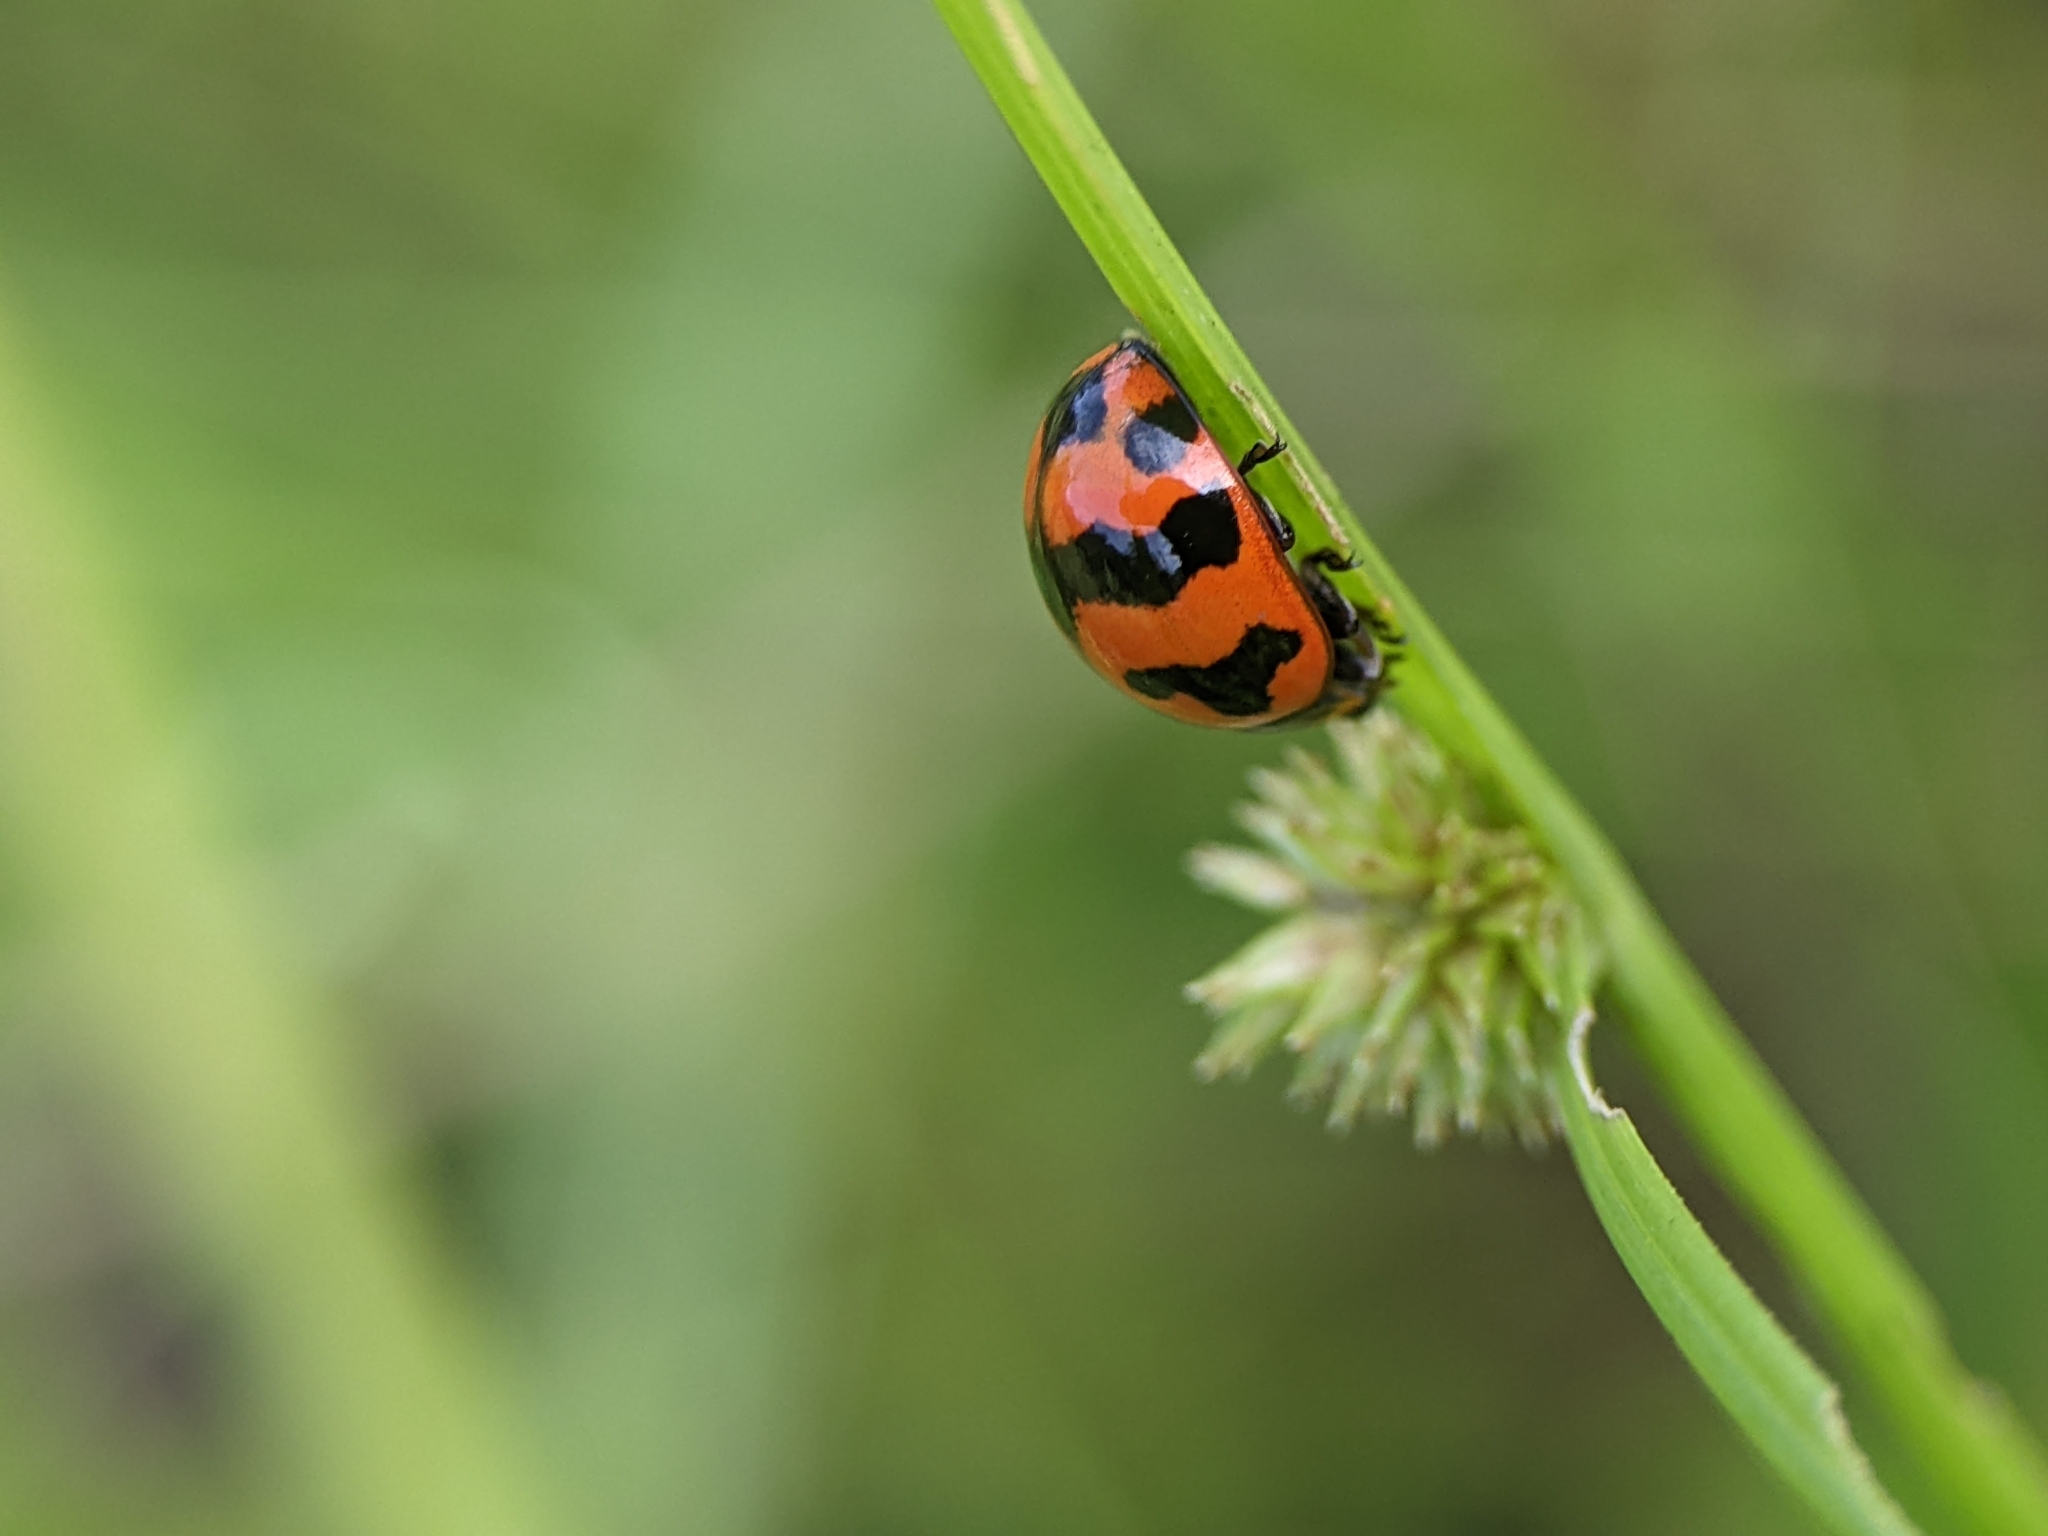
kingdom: Animalia
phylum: Arthropoda
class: Insecta
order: Coleoptera
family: Coccinellidae
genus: Coccinella
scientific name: Coccinella transversalis
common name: Transverse lady beetle
